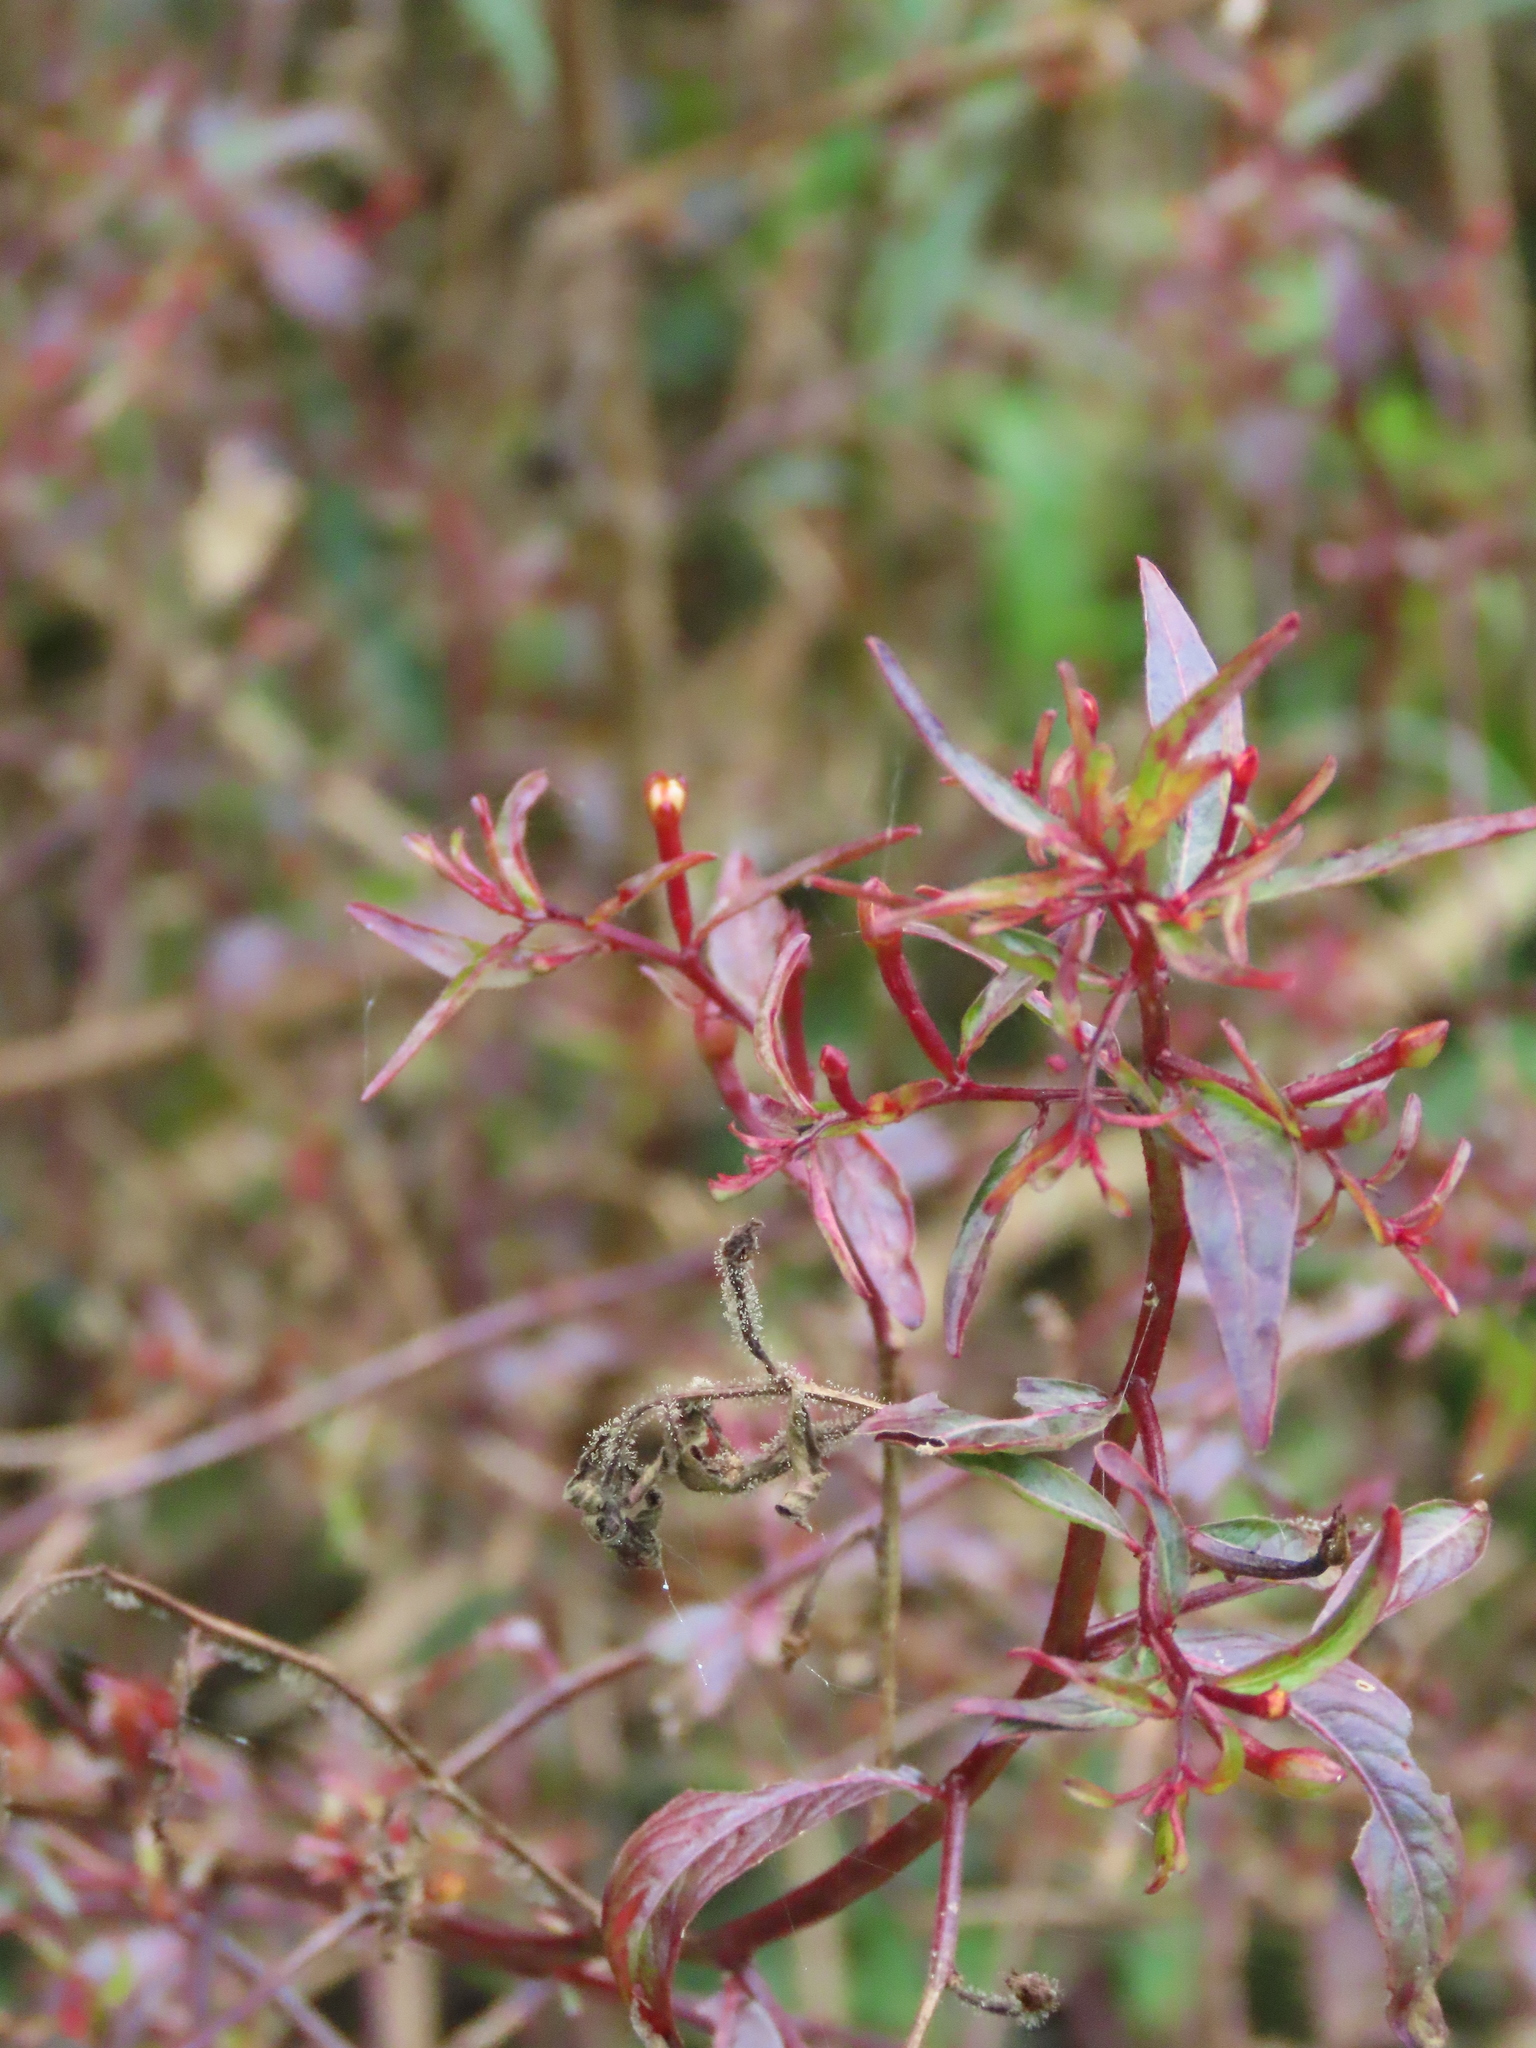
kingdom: Plantae
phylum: Tracheophyta
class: Magnoliopsida
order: Myrtales
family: Onagraceae
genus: Ludwigia
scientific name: Ludwigia hyssopifolia
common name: Linear leaf water primrose
